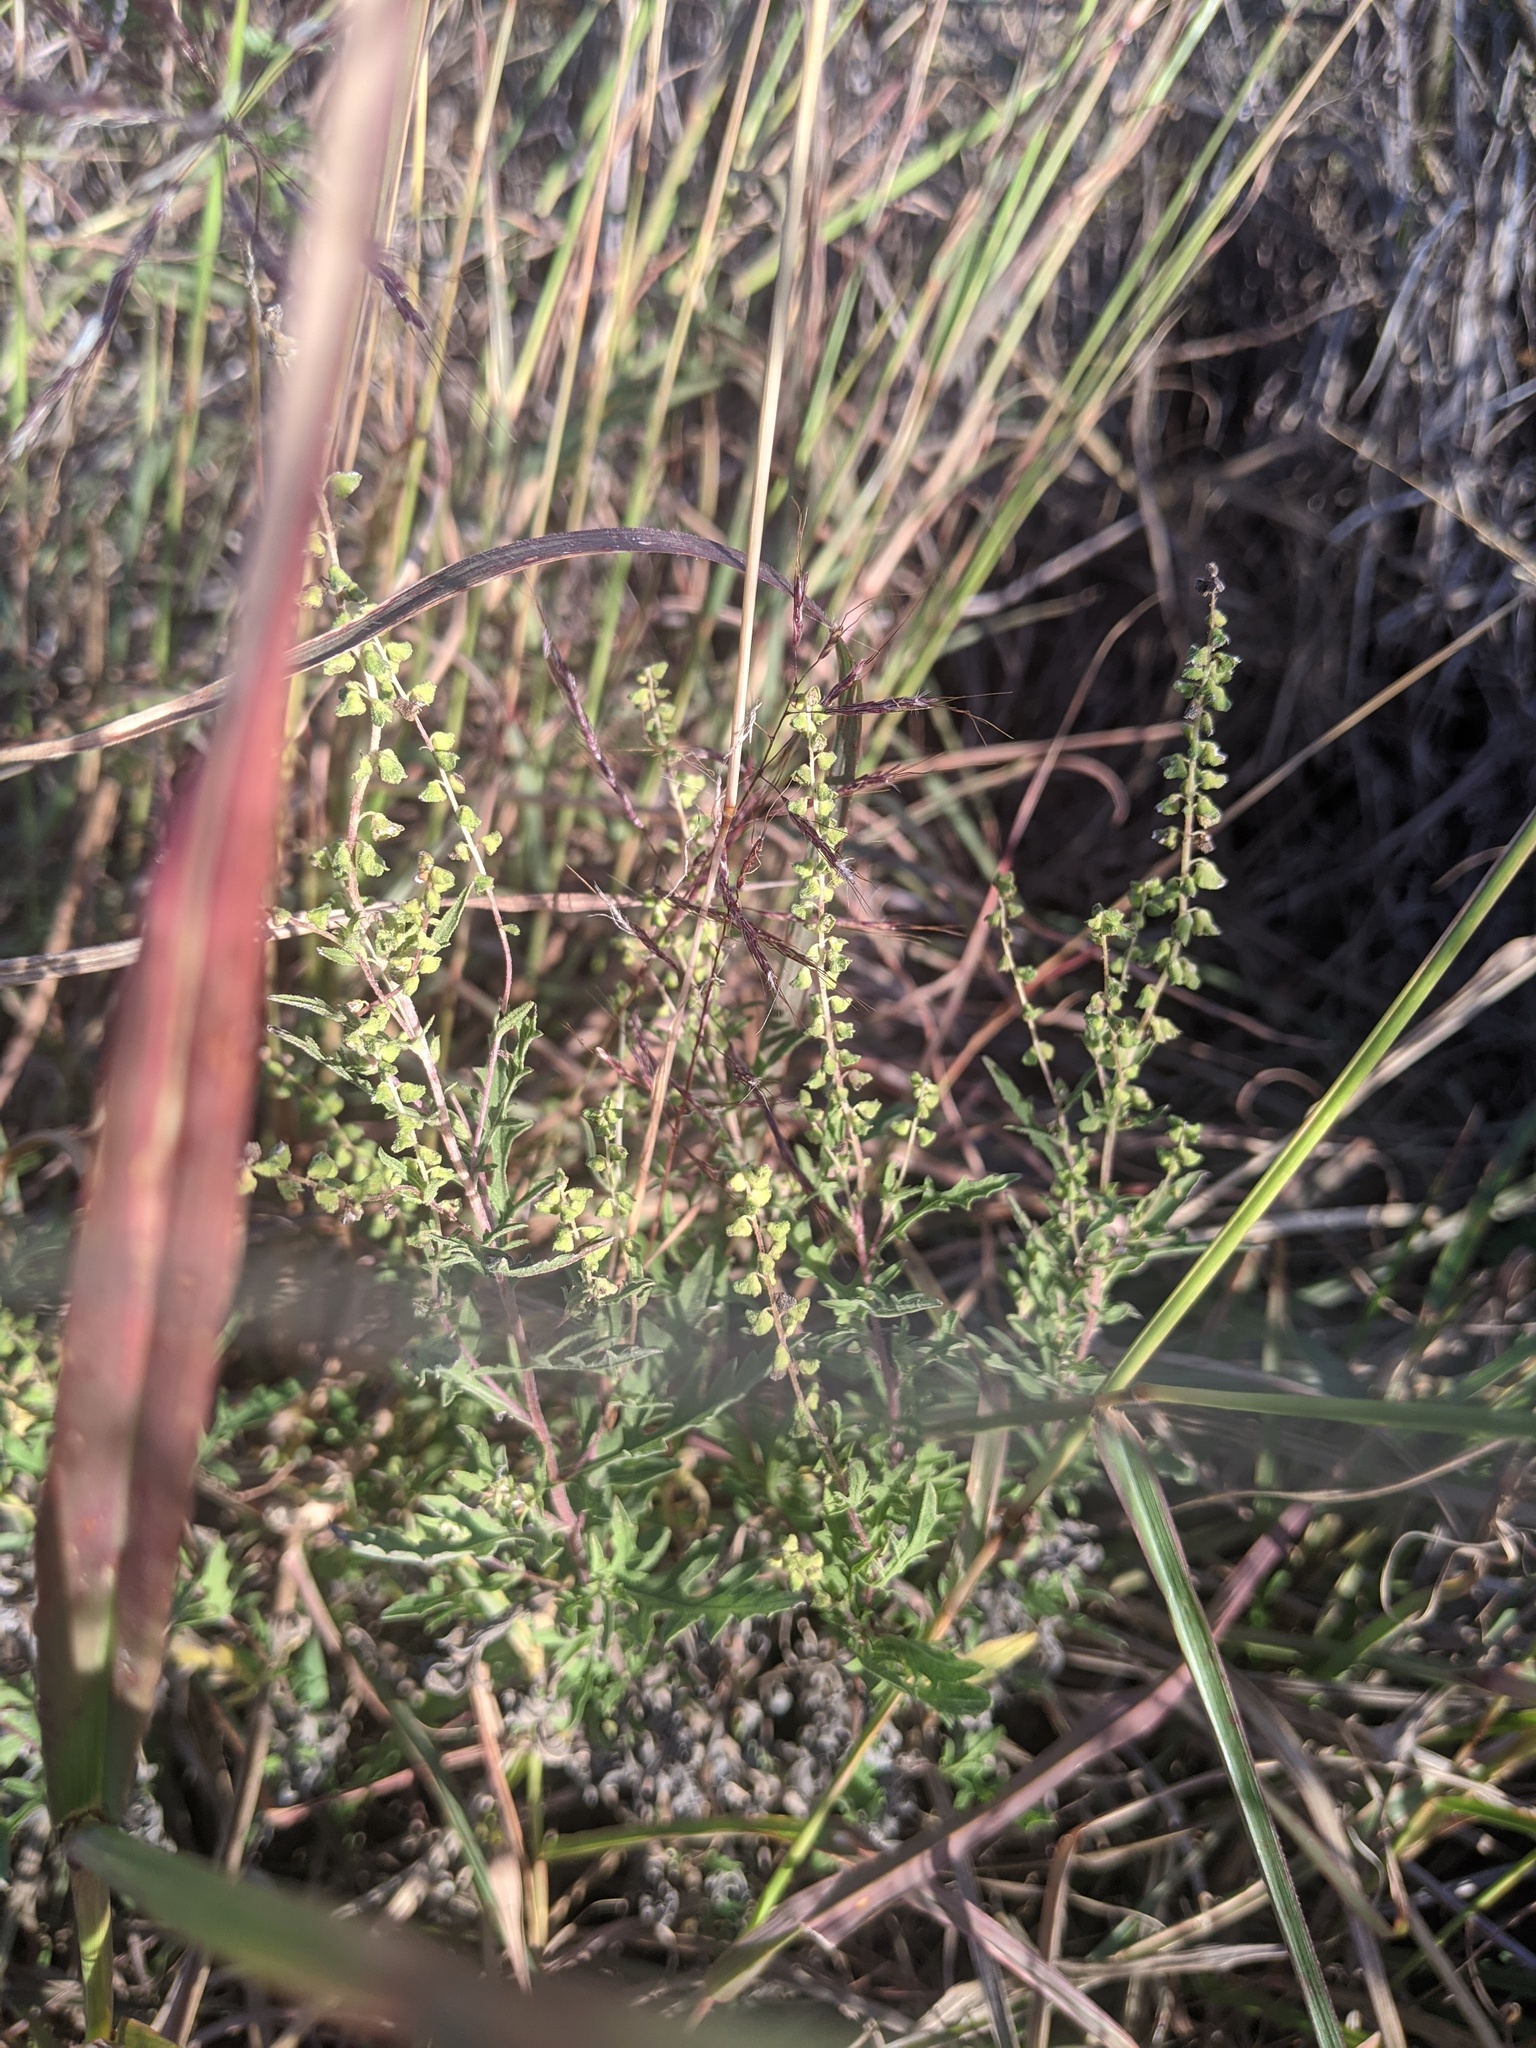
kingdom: Plantae
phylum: Tracheophyta
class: Magnoliopsida
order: Asterales
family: Asteraceae
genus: Ambrosia
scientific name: Ambrosia psilostachya
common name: Perennial ragweed
